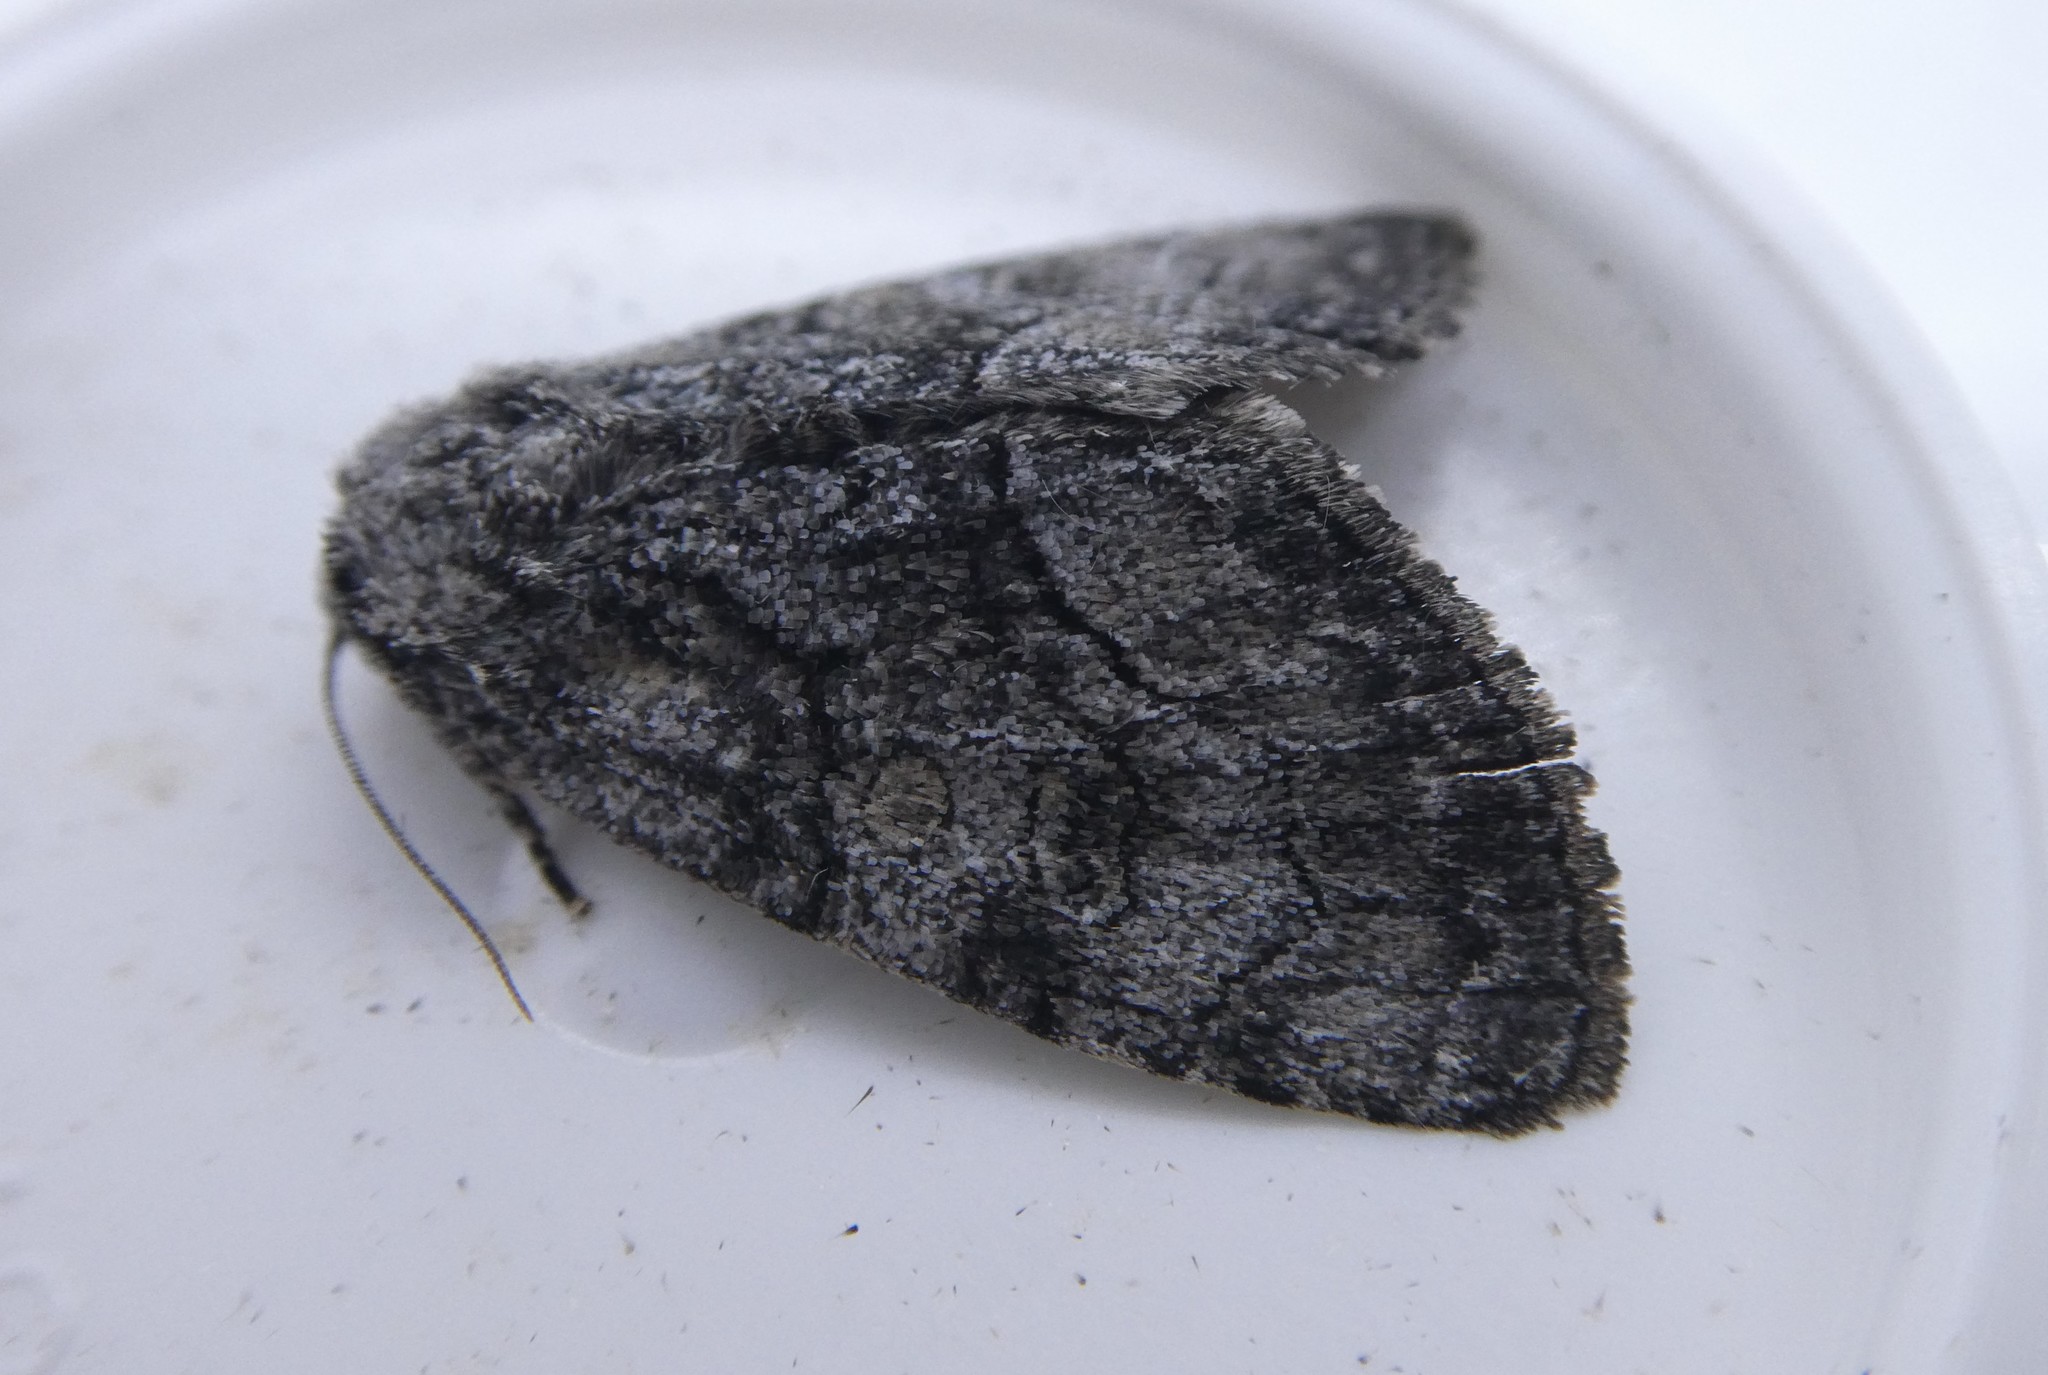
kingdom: Animalia
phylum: Arthropoda
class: Insecta
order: Lepidoptera
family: Noctuidae
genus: Raphia
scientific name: Raphia frater
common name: Brother
